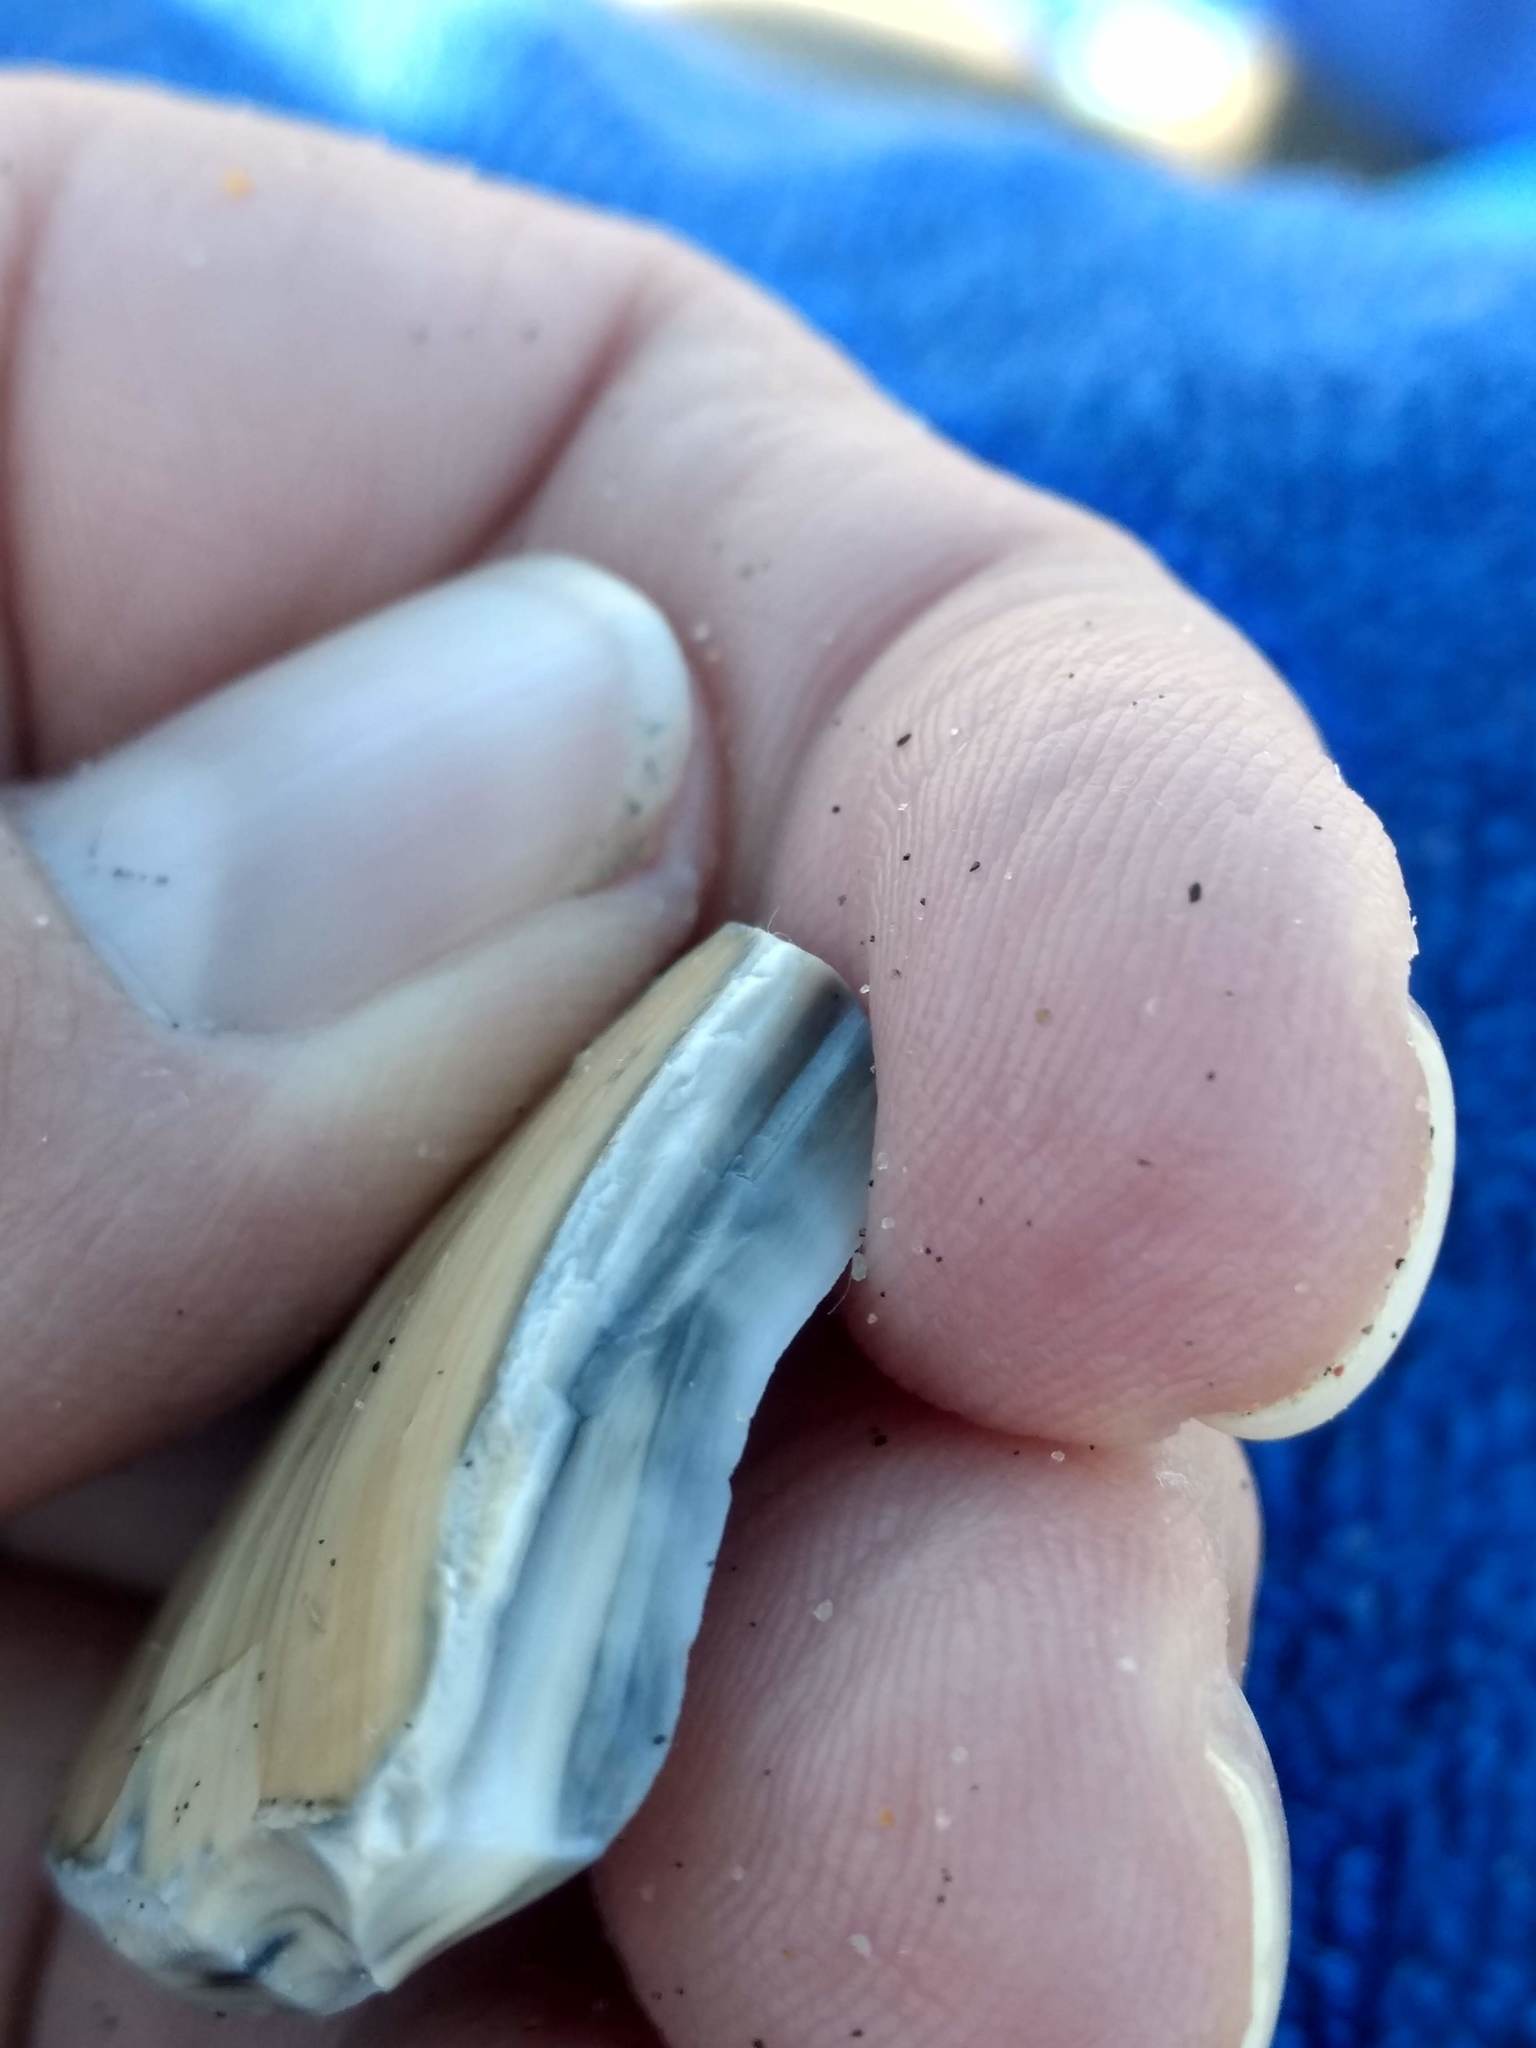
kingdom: Animalia
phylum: Mollusca
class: Bivalvia
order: Venerida
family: Veneridae
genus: Tivela
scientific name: Tivela stultorum
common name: Pismo clam
